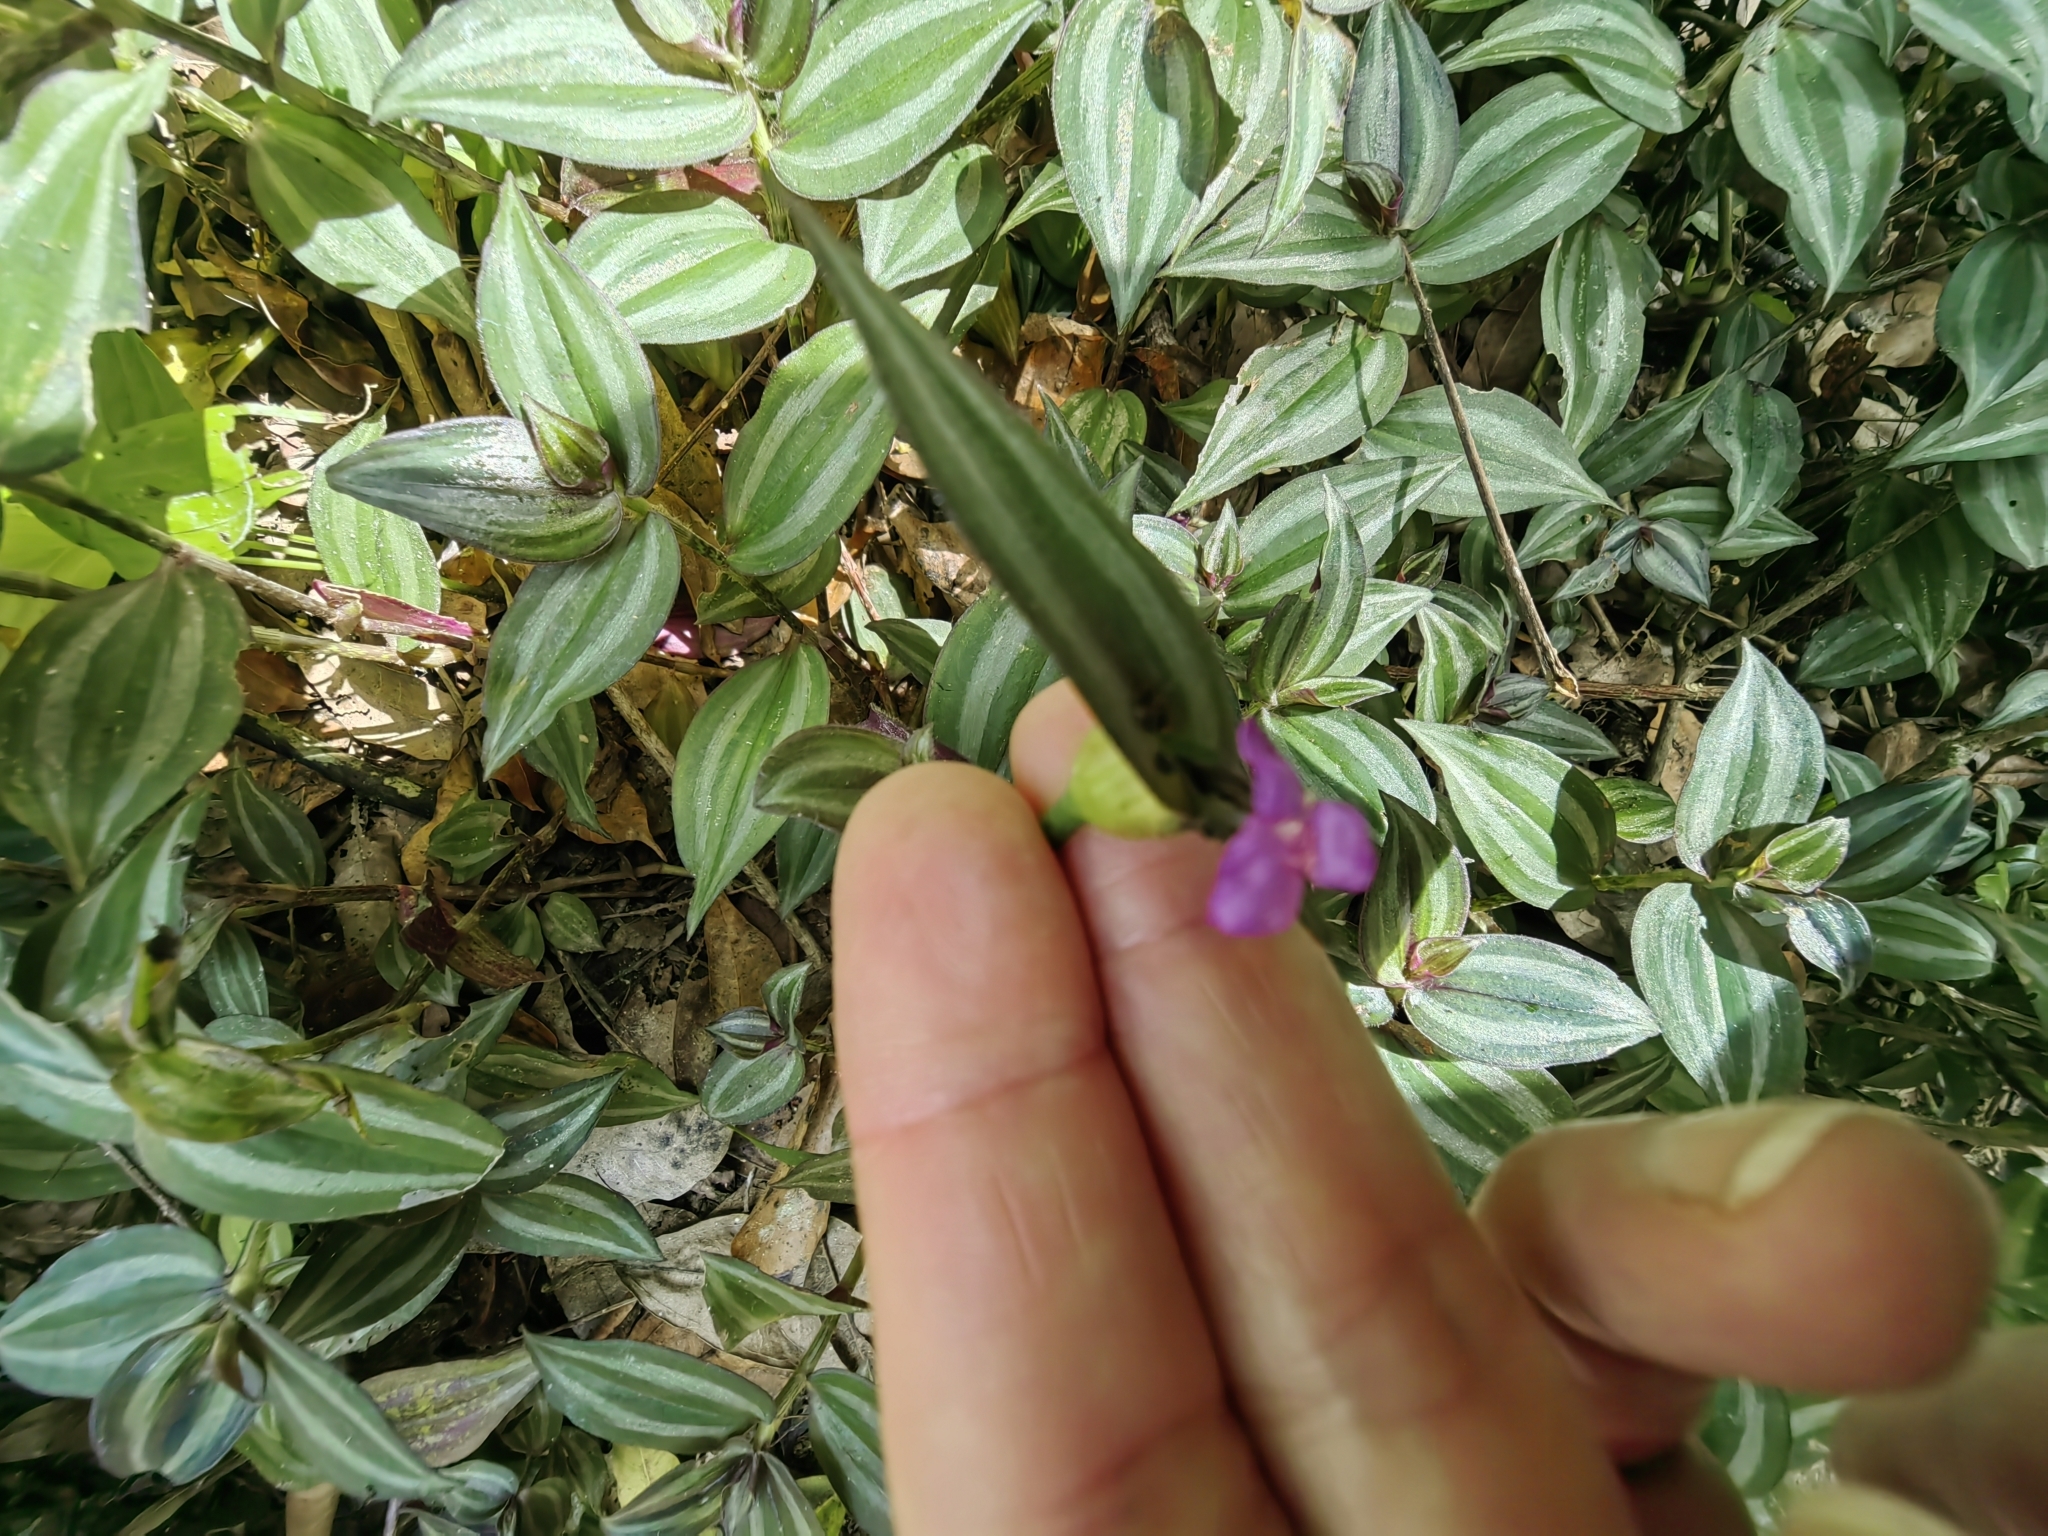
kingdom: Plantae
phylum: Tracheophyta
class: Liliopsida
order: Commelinales
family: Commelinaceae
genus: Tradescantia
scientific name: Tradescantia zebrina
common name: Inchplant
